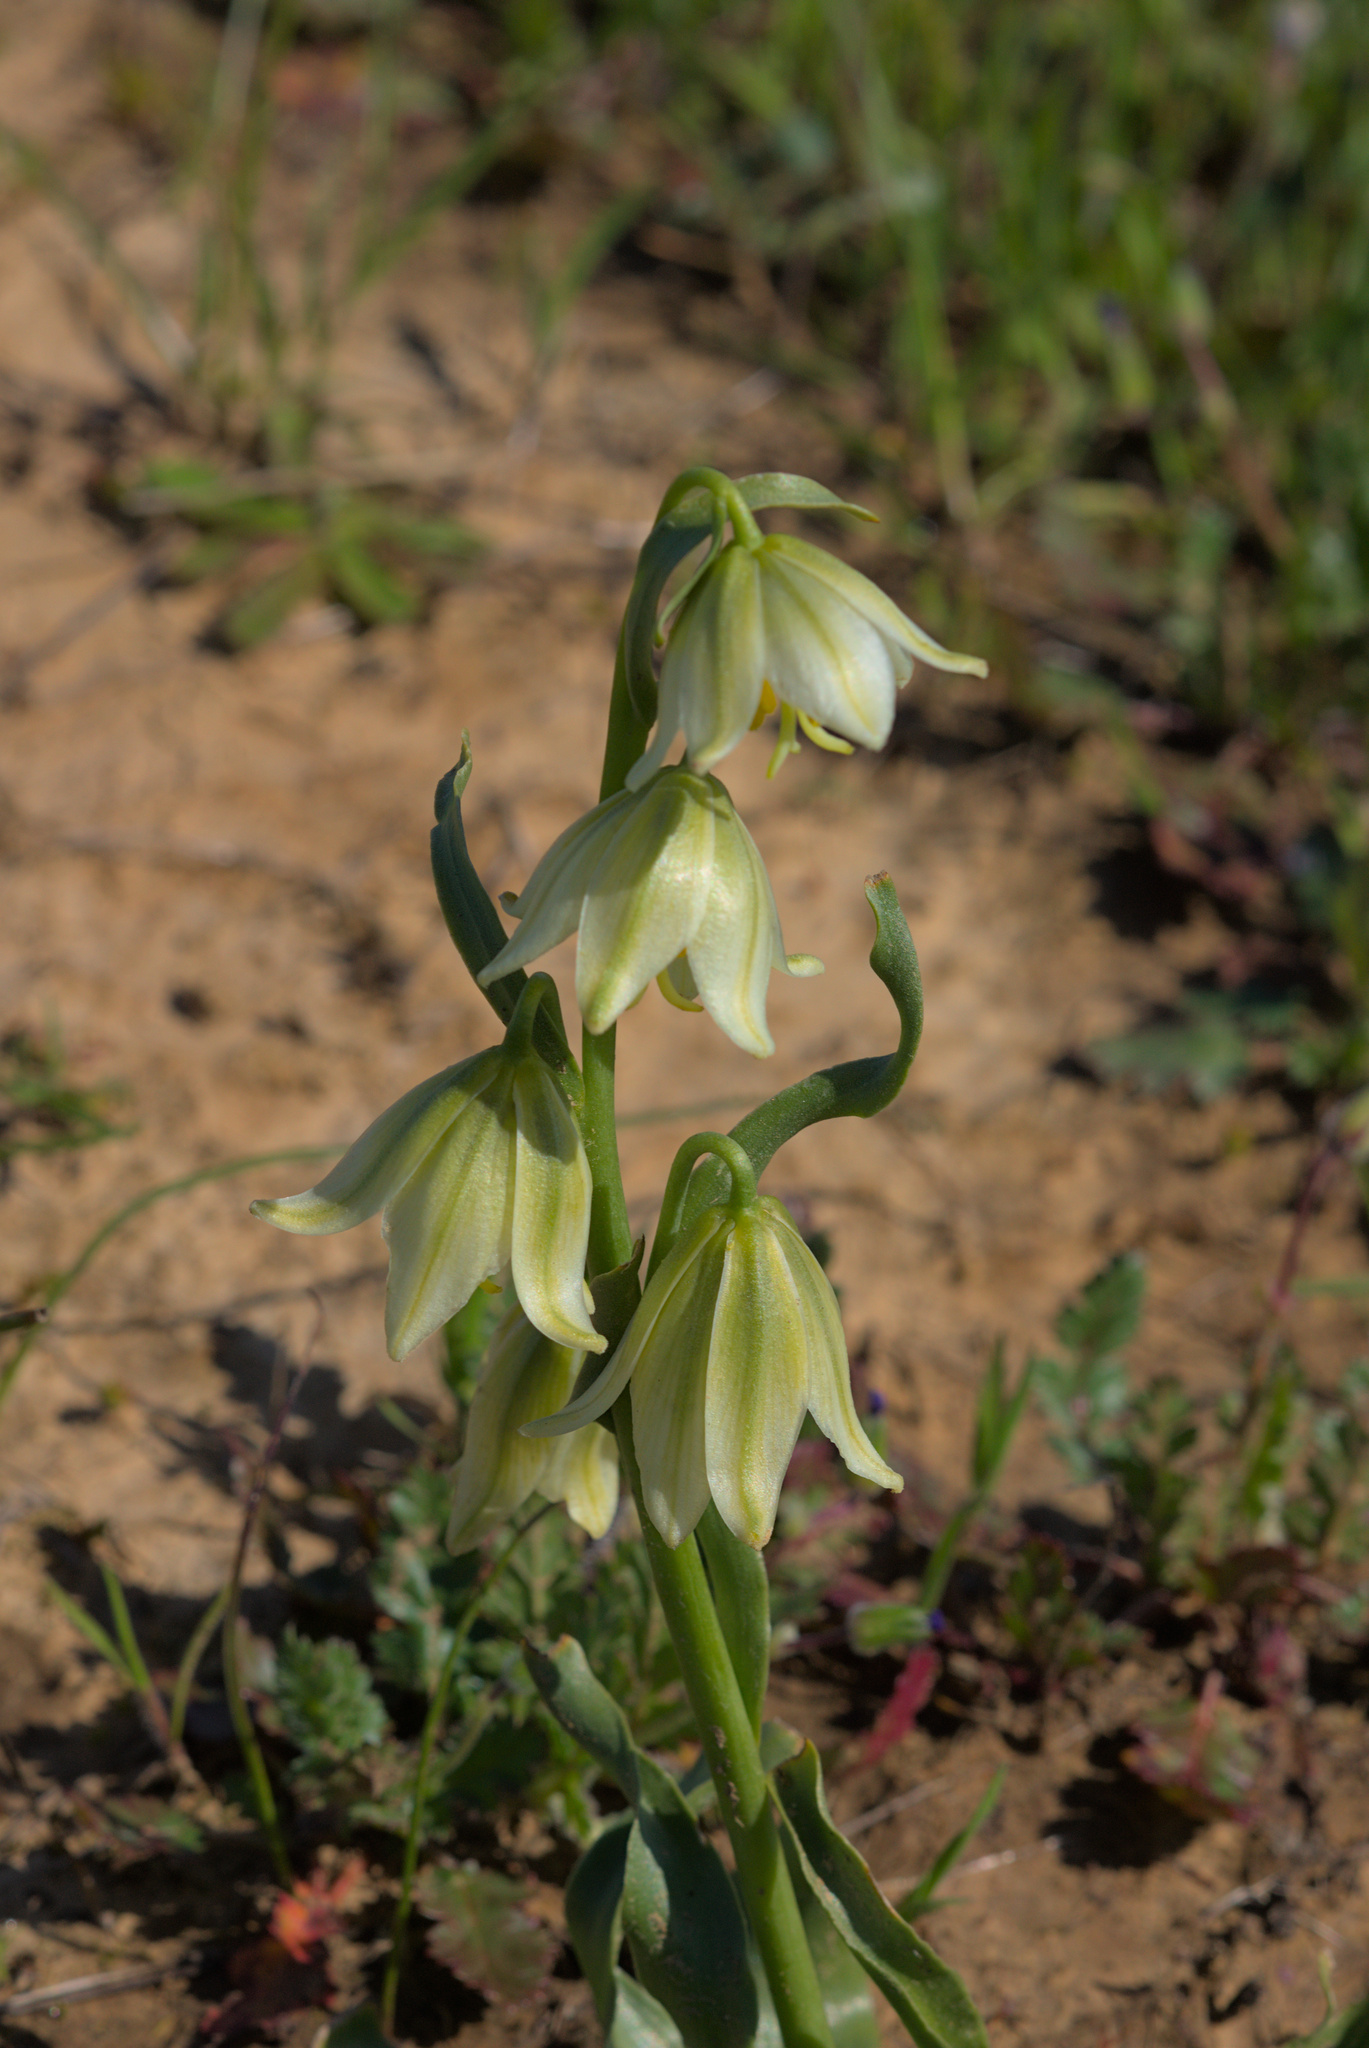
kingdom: Plantae
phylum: Tracheophyta
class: Liliopsida
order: Liliales
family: Liliaceae
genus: Fritillaria
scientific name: Fritillaria liliacea
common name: Fragrant fritillary
